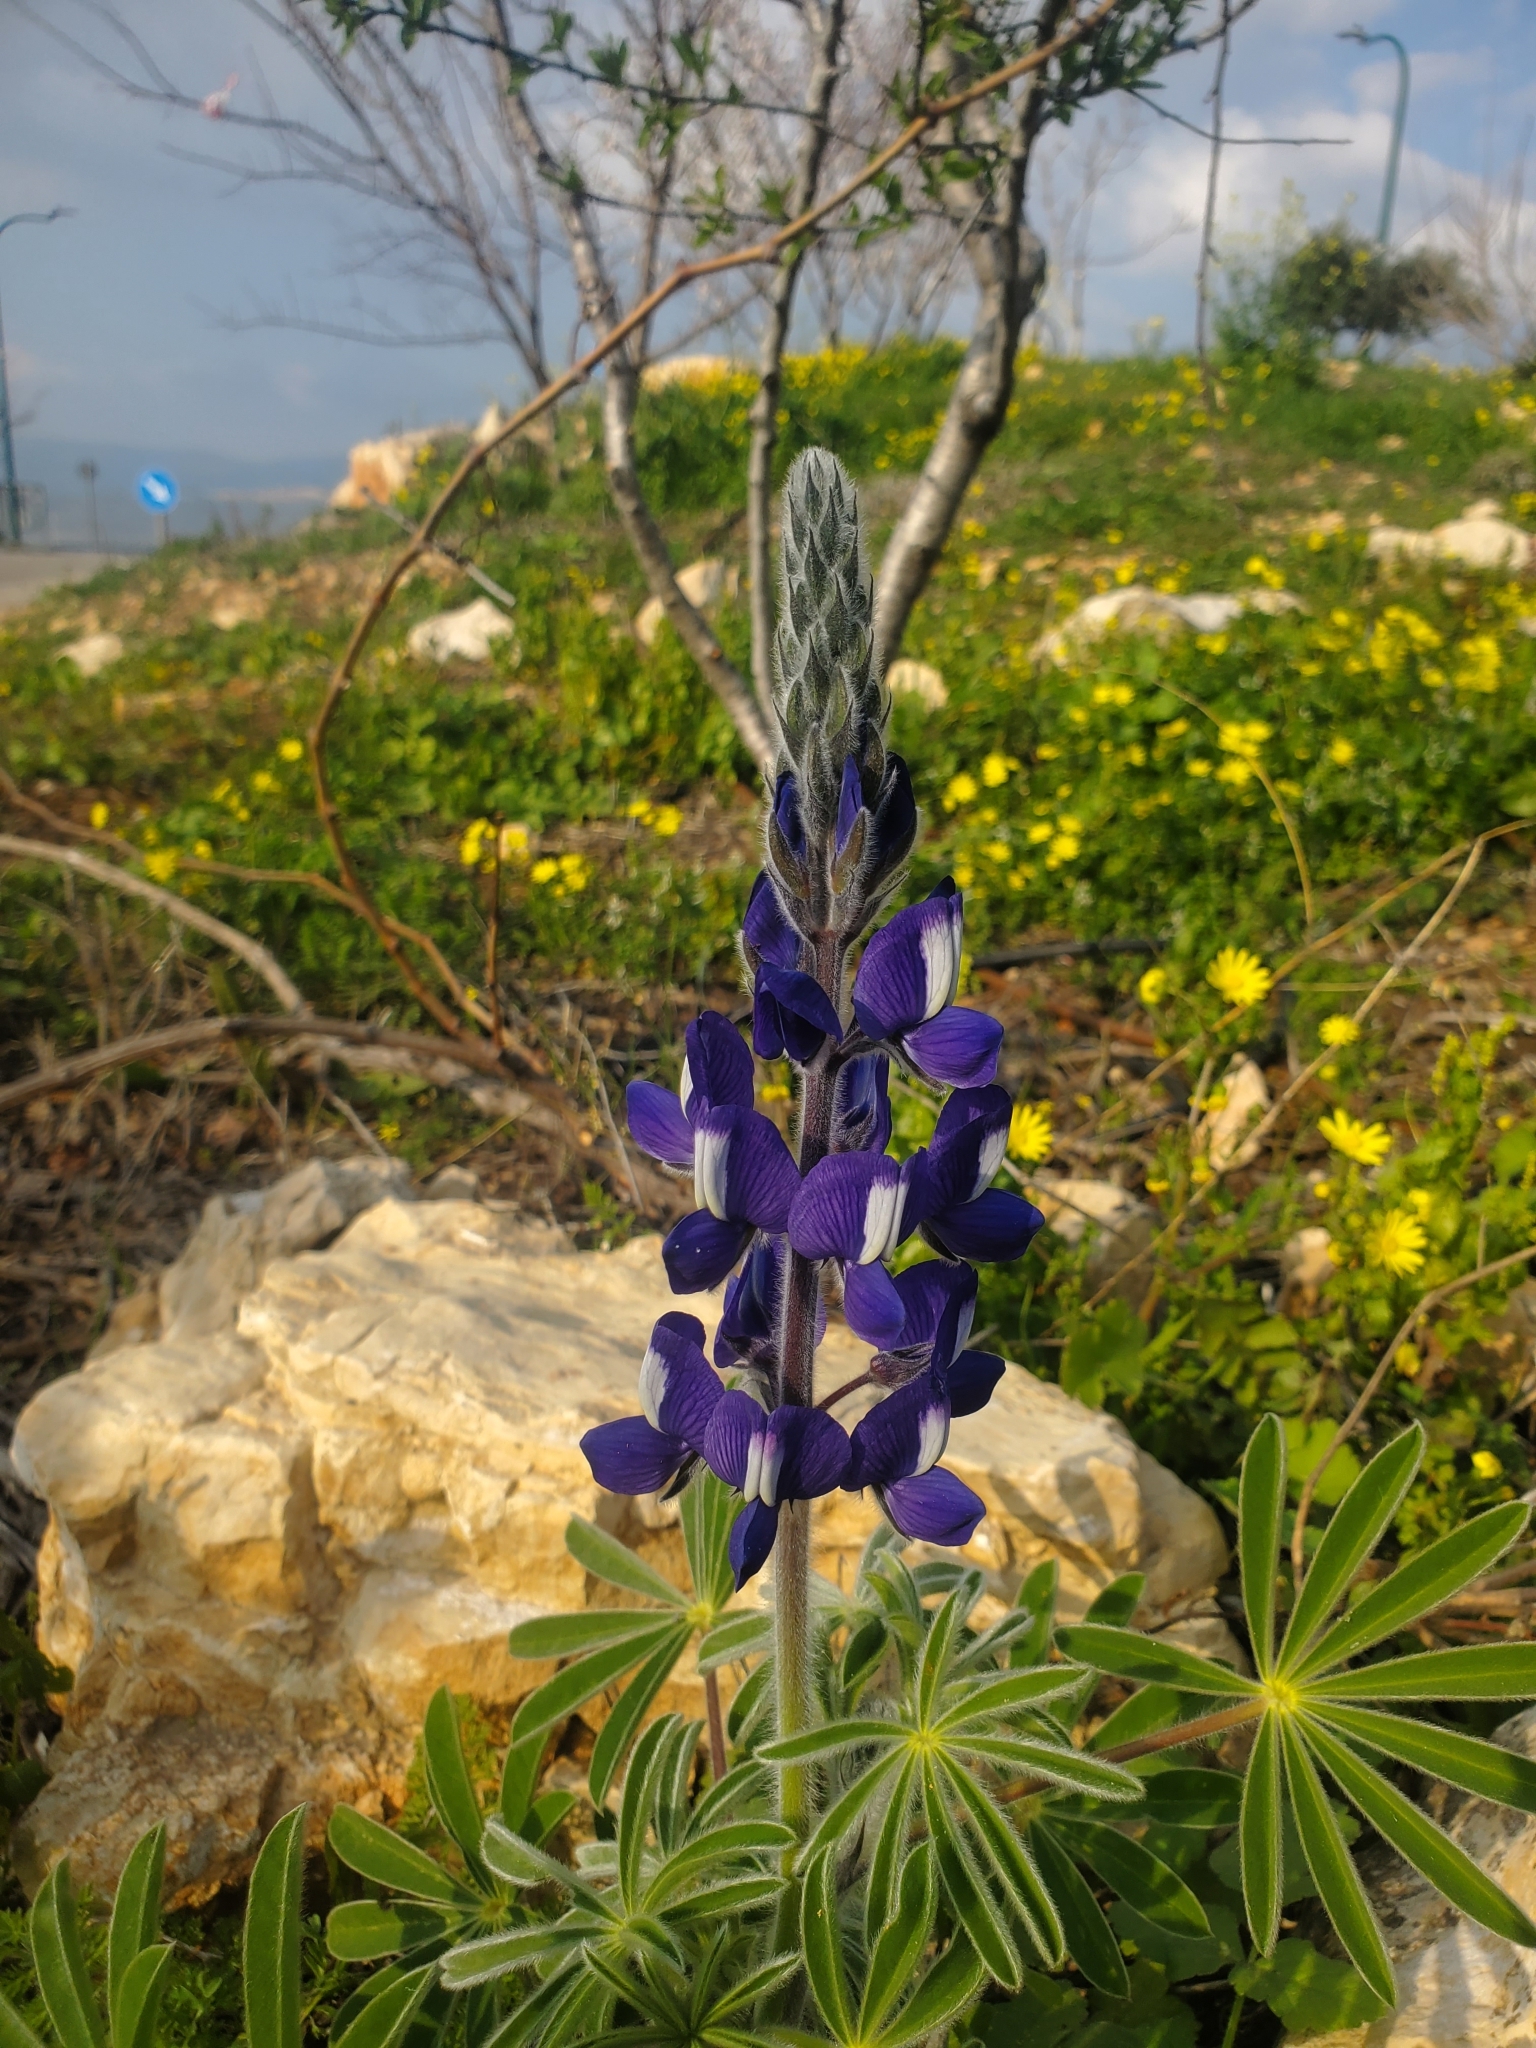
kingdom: Plantae
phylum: Tracheophyta
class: Magnoliopsida
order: Fabales
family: Fabaceae
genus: Lupinus
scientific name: Lupinus pilosus
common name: Blue lupine
